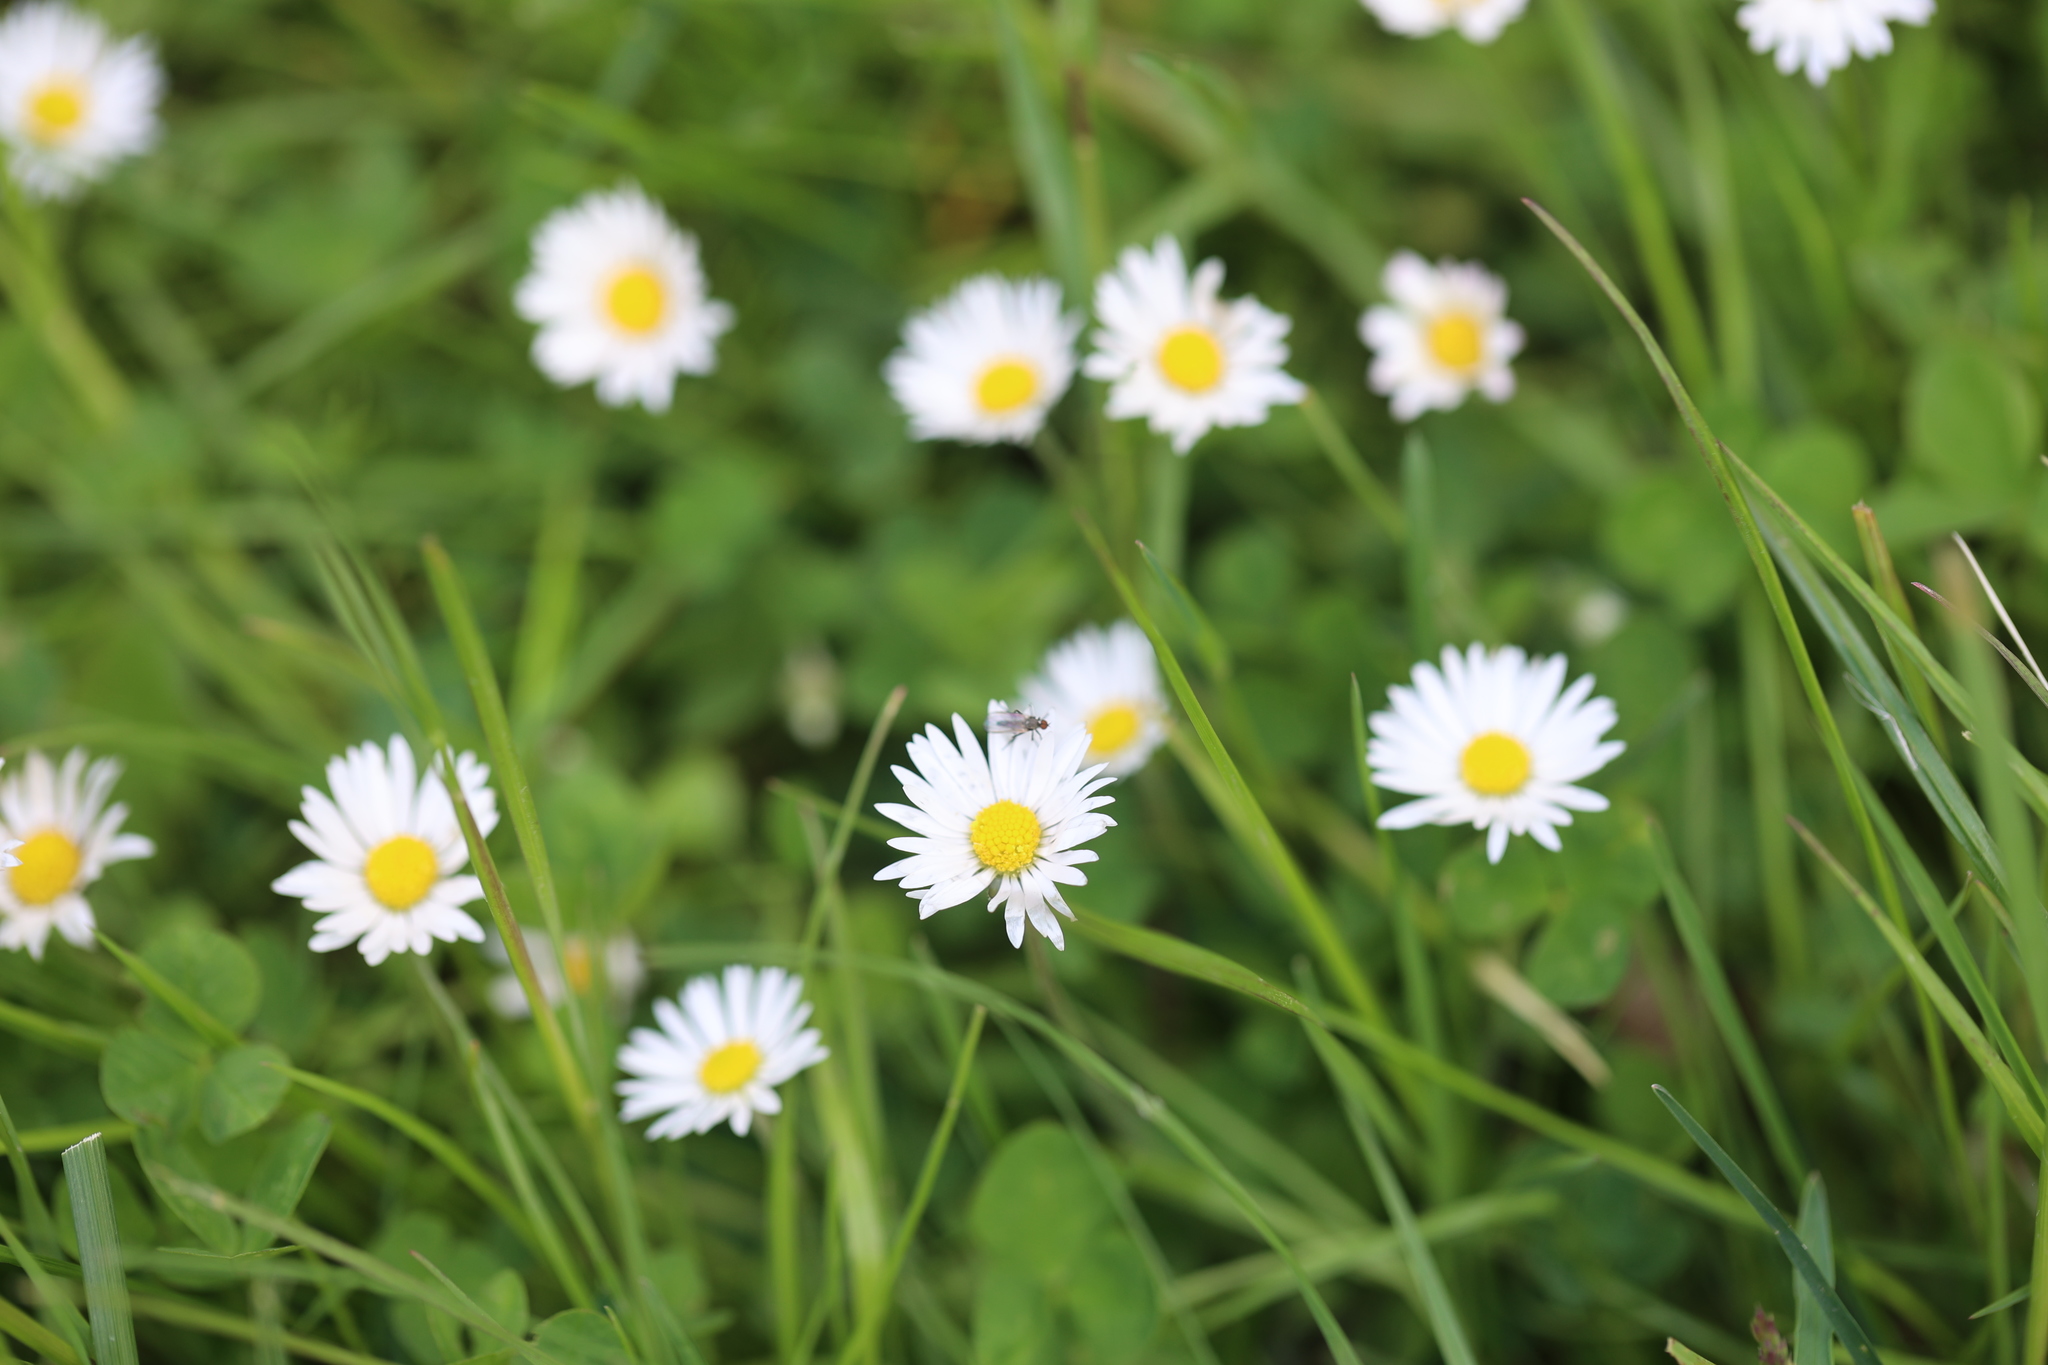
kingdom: Plantae
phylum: Tracheophyta
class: Magnoliopsida
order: Asterales
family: Asteraceae
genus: Bellis
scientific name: Bellis perennis
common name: Lawndaisy
